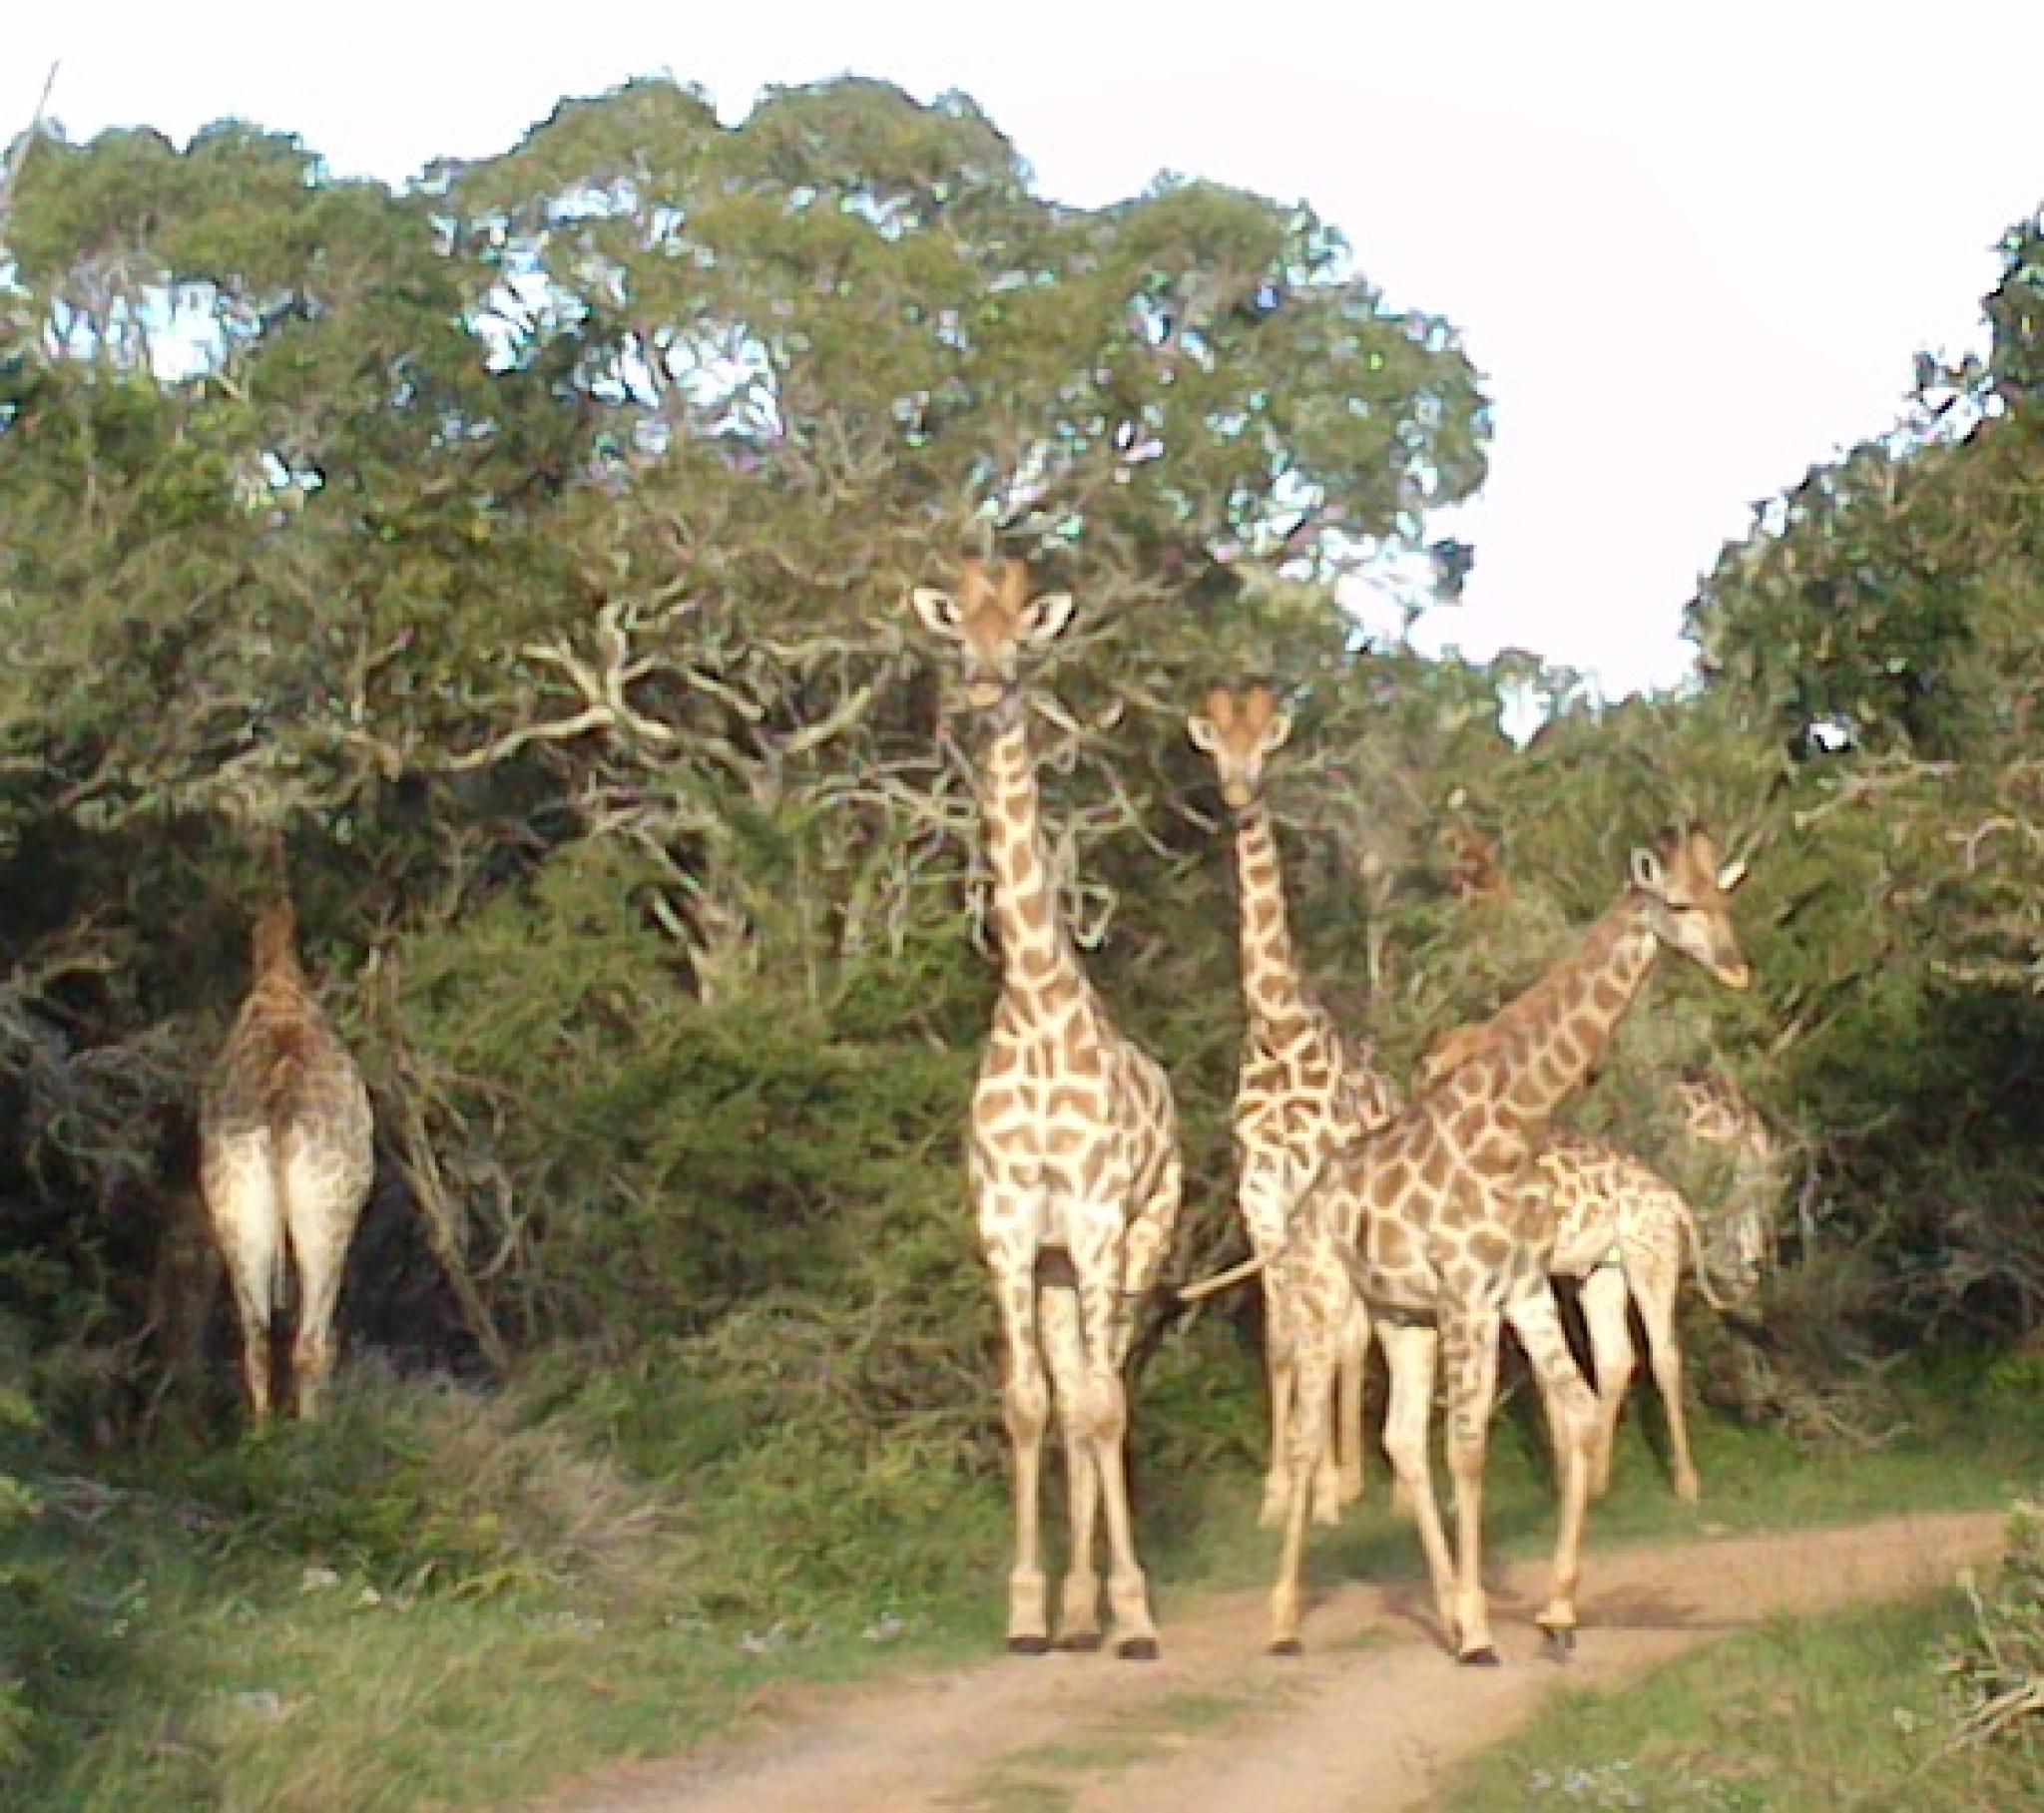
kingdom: Animalia
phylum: Chordata
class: Mammalia
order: Artiodactyla
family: Giraffidae
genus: Giraffa
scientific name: Giraffa giraffa
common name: Southern giraffe
